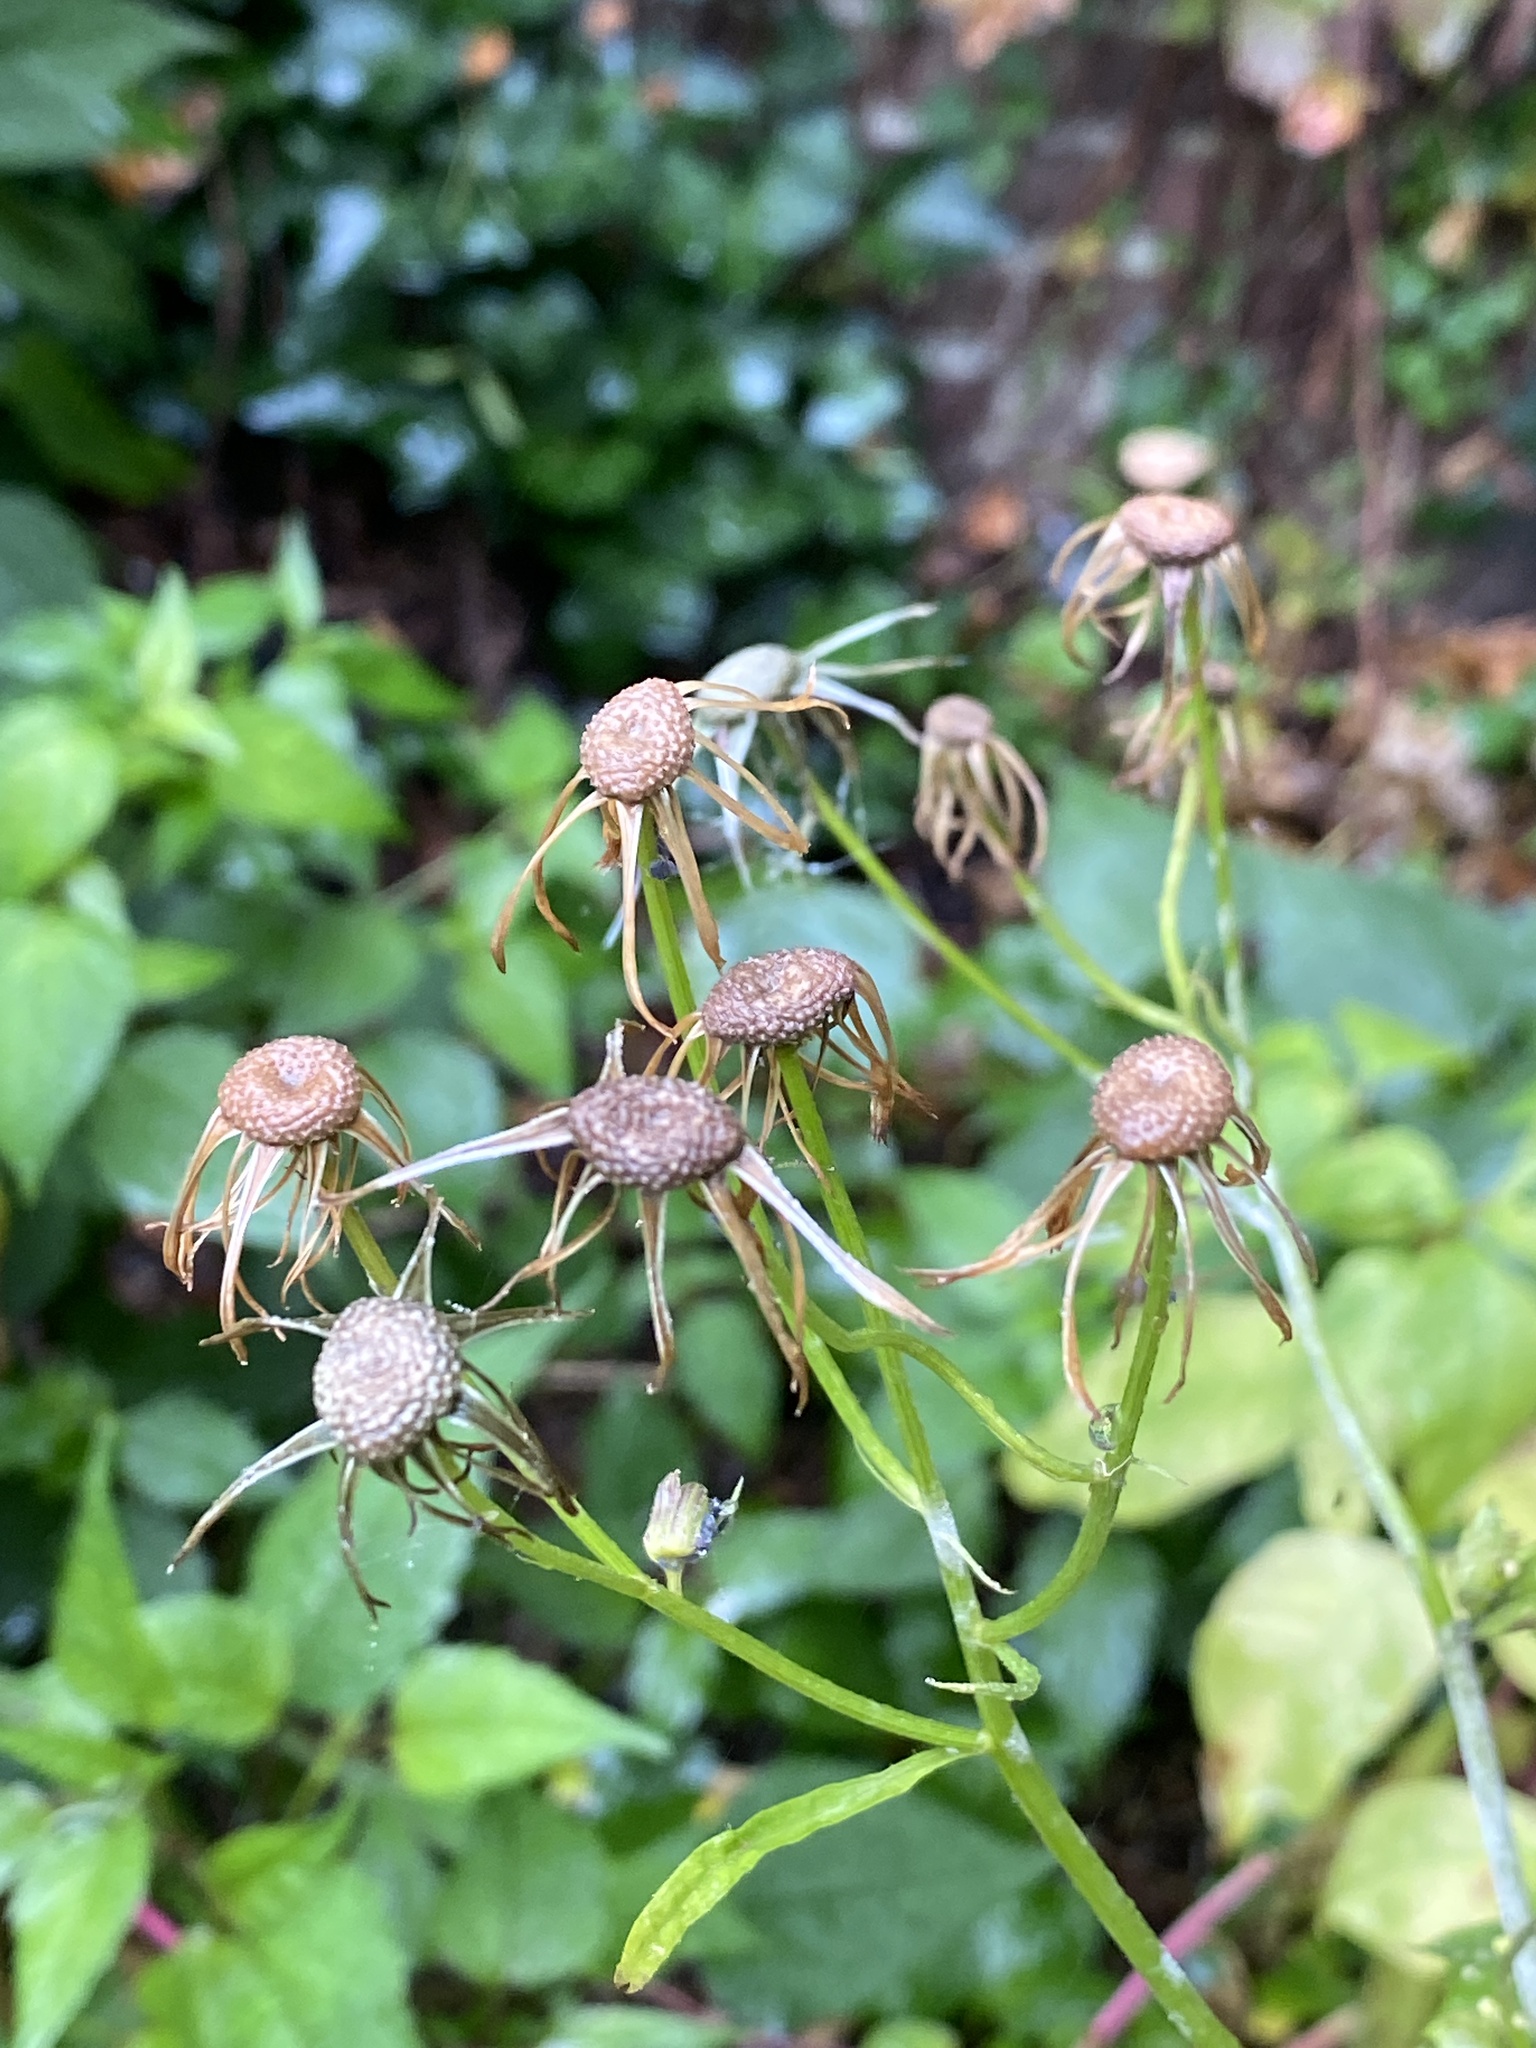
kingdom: Plantae
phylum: Tracheophyta
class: Magnoliopsida
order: Asterales
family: Asteraceae
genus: Erechtites
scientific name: Erechtites hieraciifolius
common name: American burnweed
